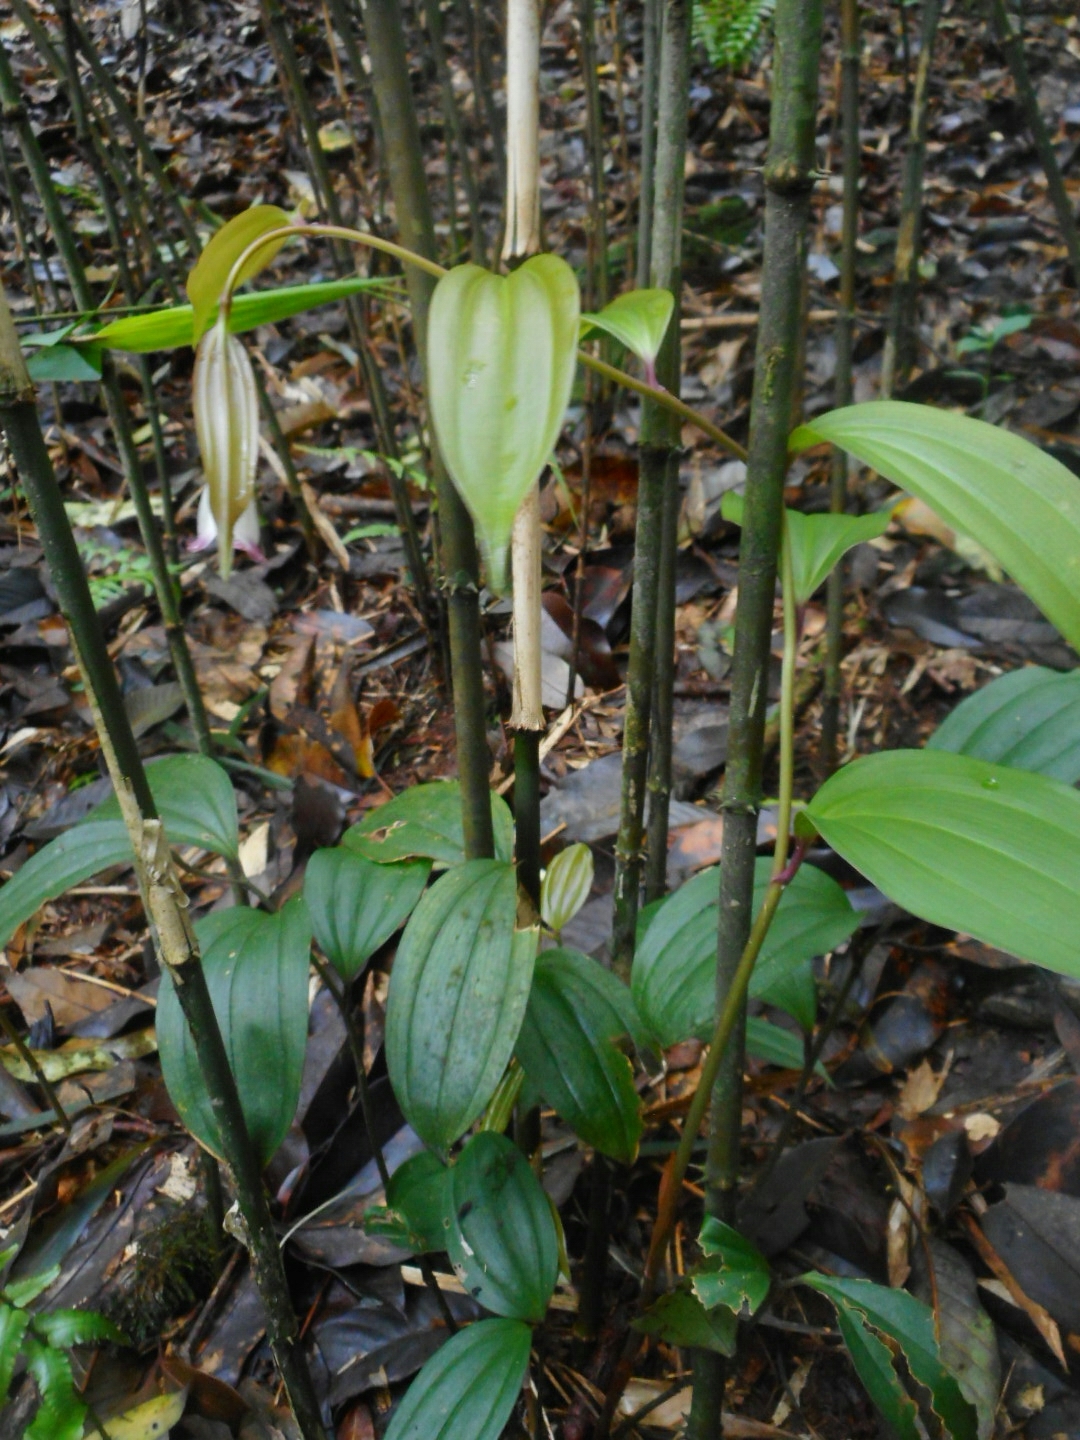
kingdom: Plantae
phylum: Tracheophyta
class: Liliopsida
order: Liliales
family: Colchicaceae
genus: Disporum
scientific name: Disporum trabeculatum
